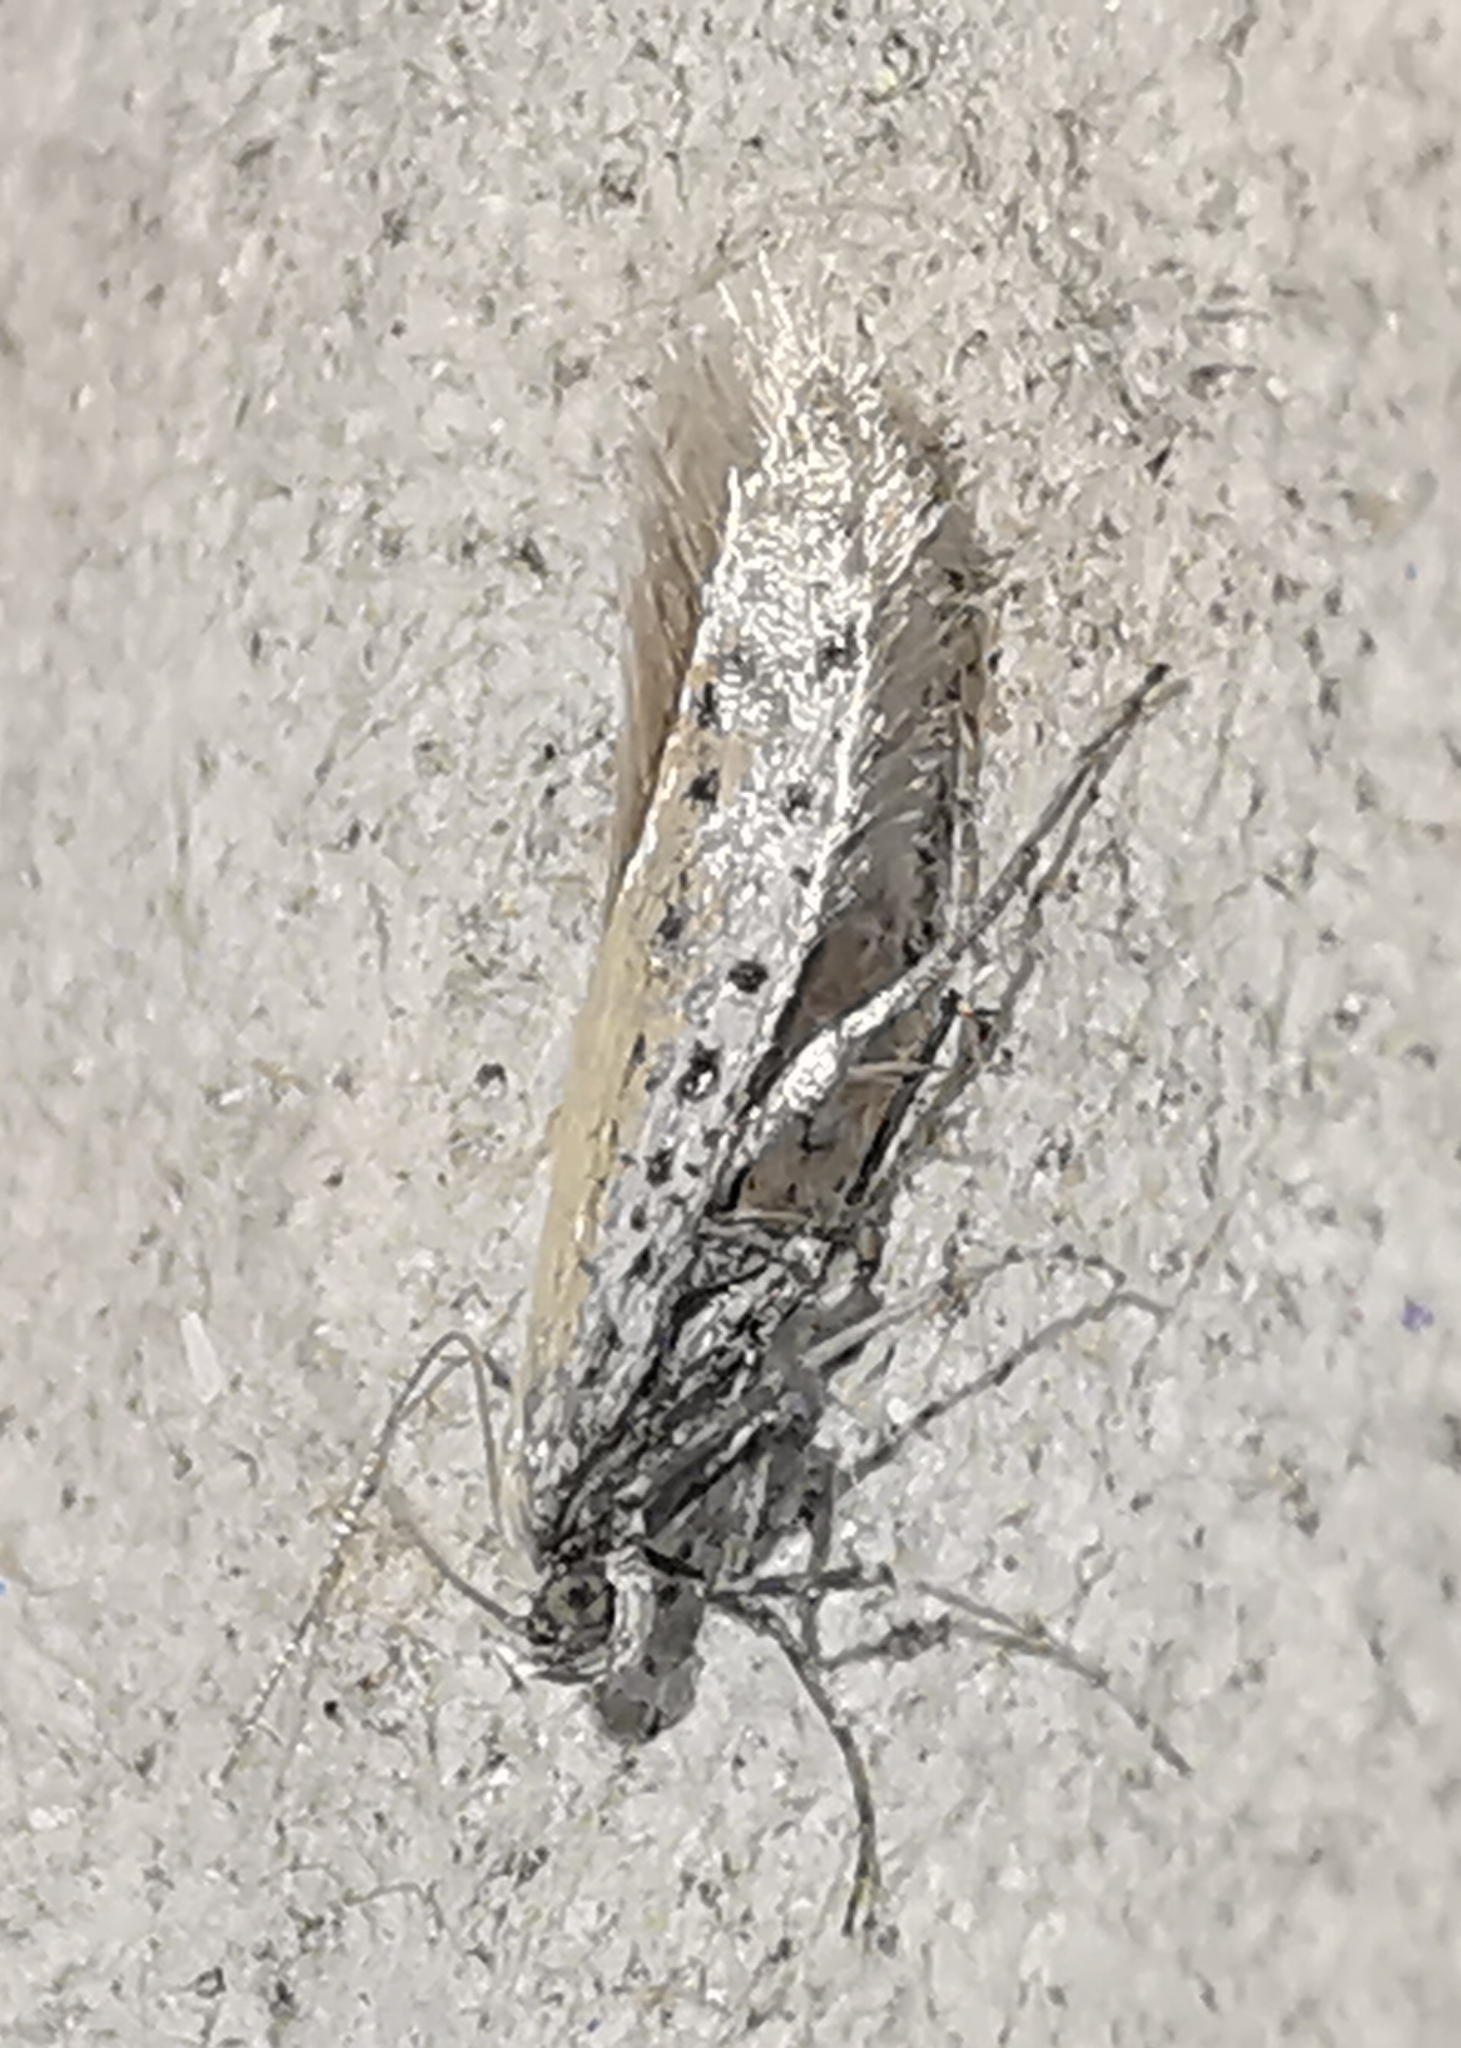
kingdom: Animalia
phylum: Arthropoda
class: Insecta
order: Lepidoptera
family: Gracillariidae
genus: Aspilapteryx
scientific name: Aspilapteryx tringipennella
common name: Ribwort slender
